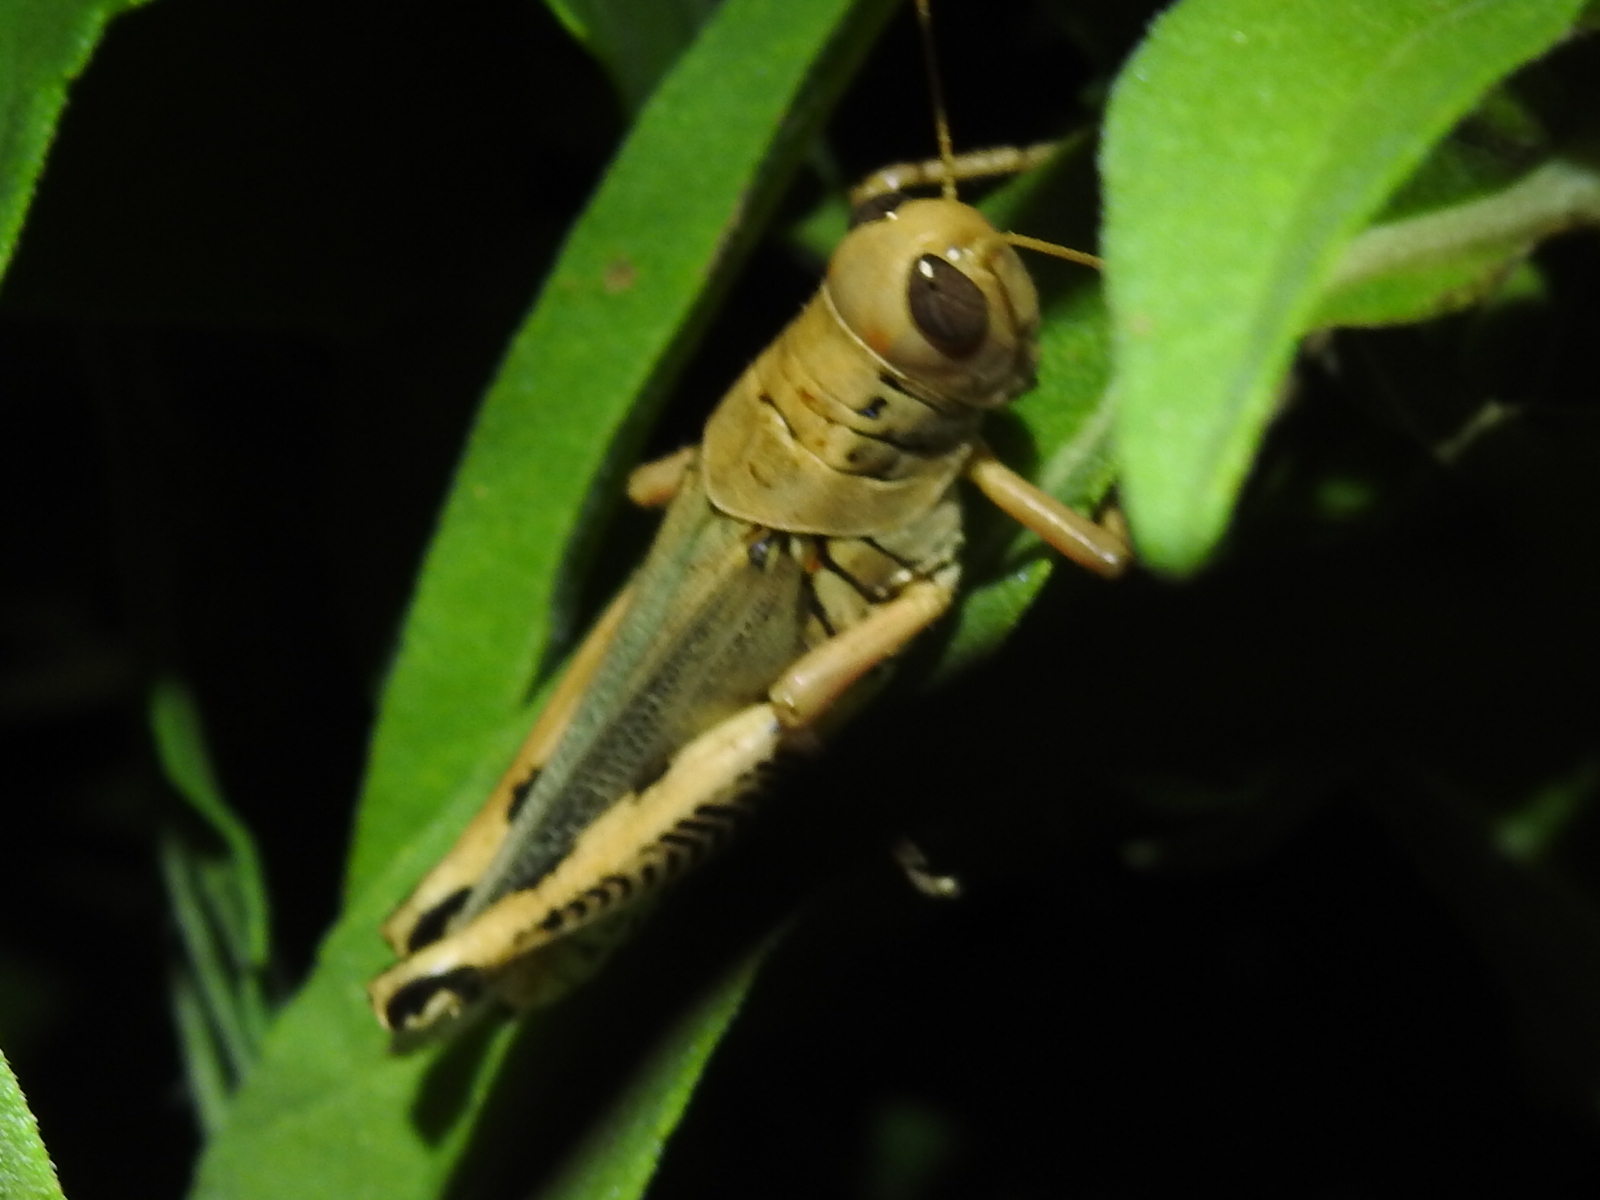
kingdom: Animalia
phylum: Arthropoda
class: Insecta
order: Orthoptera
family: Acrididae
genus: Melanoplus
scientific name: Melanoplus differentialis
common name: Differential grasshopper
